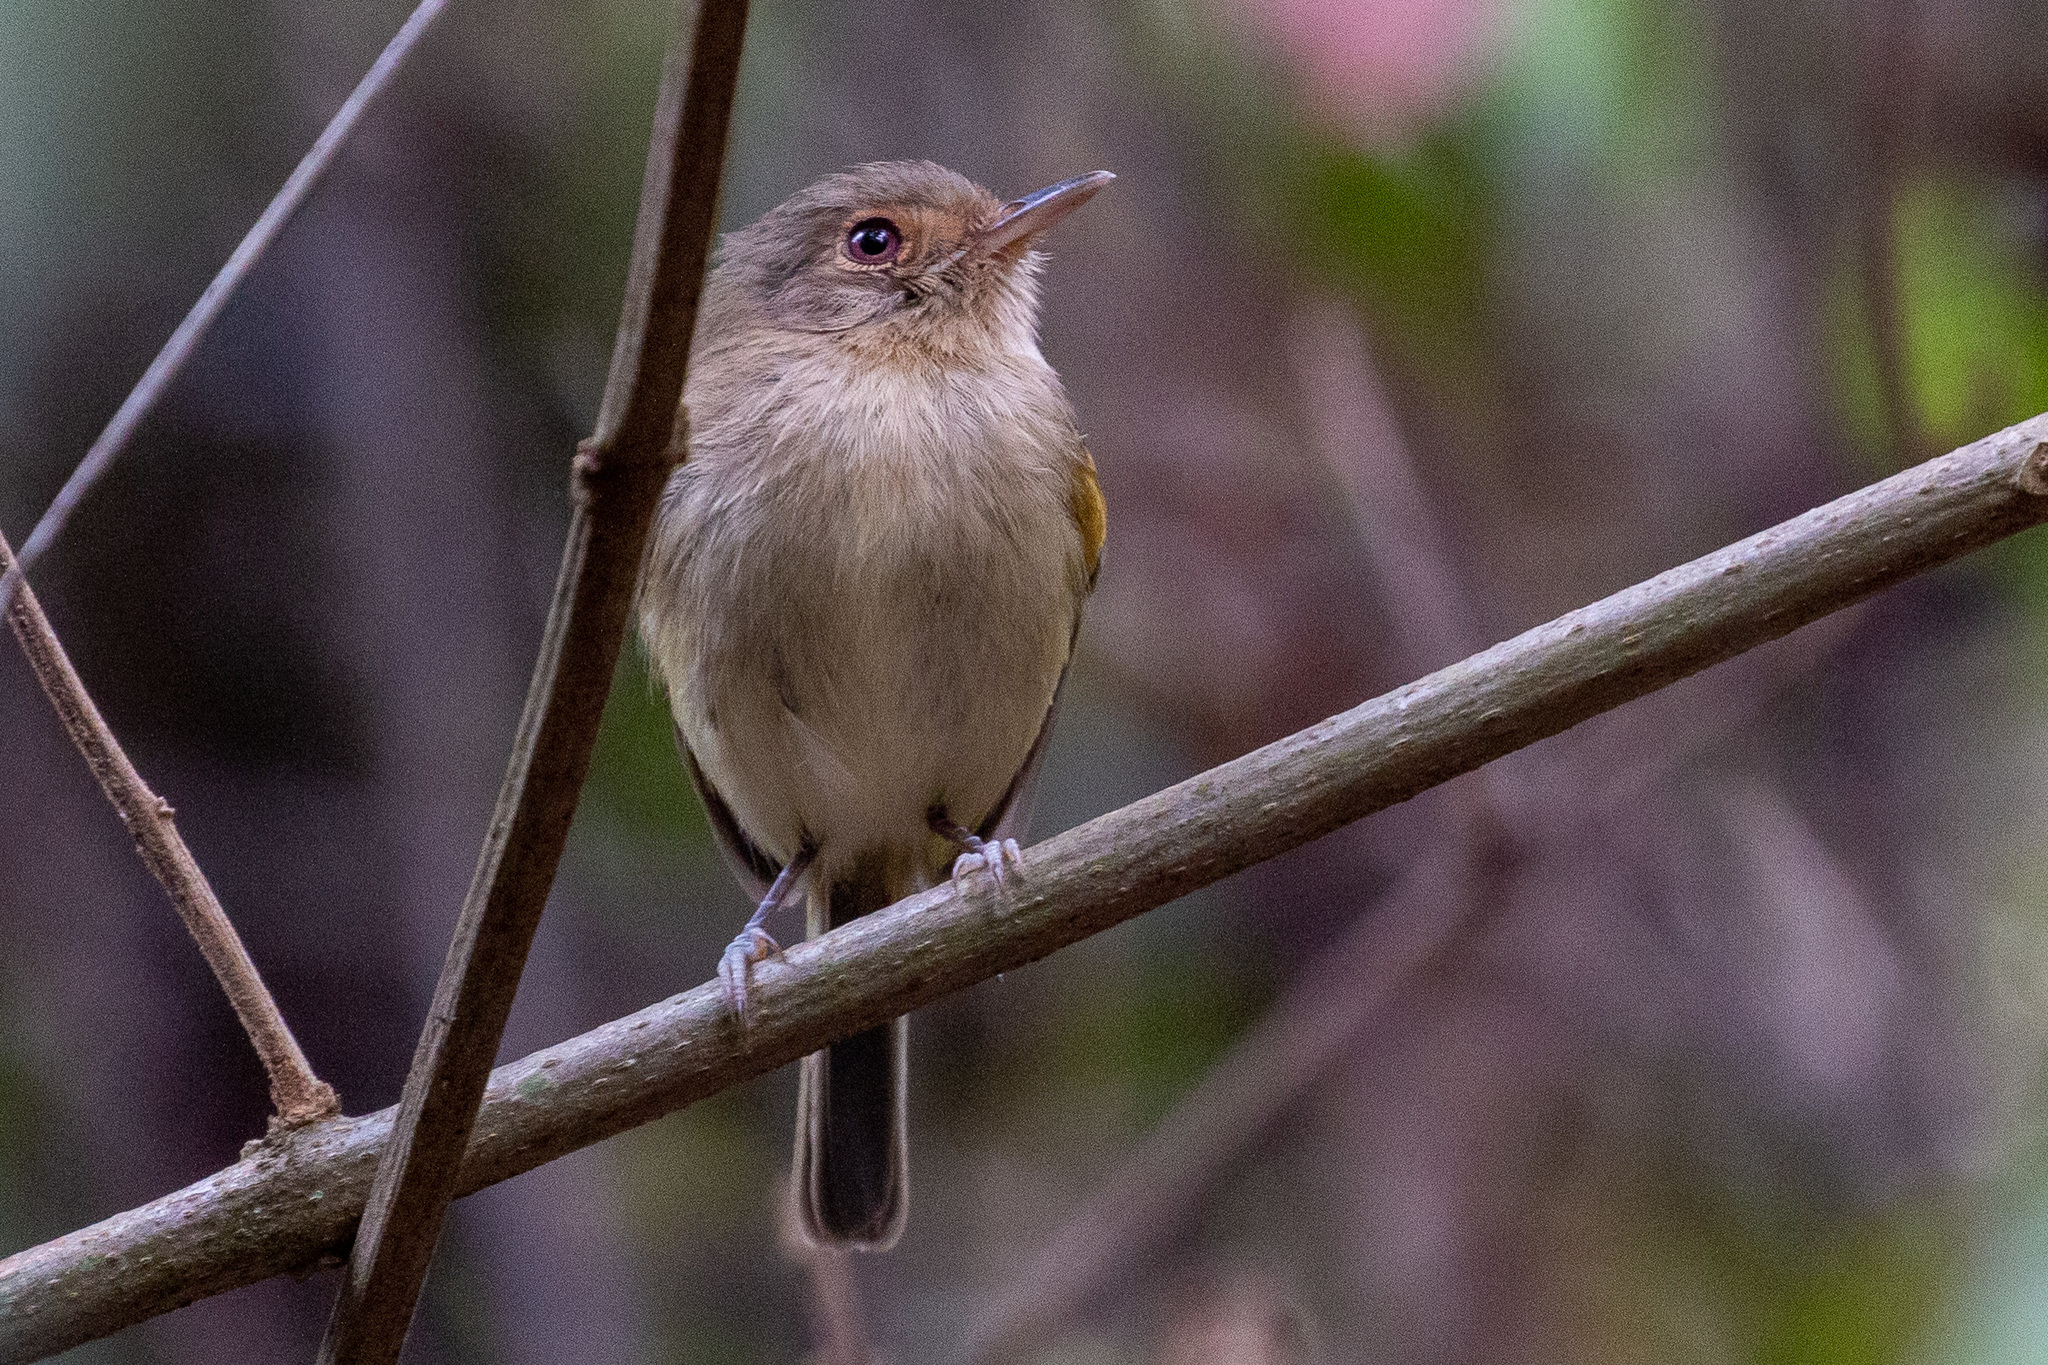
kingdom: Animalia
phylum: Chordata
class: Aves
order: Passeriformes
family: Tyrannidae
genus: Hemitriccus
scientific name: Hemitriccus mirandae
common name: Buff-breasted tody-tyrant
